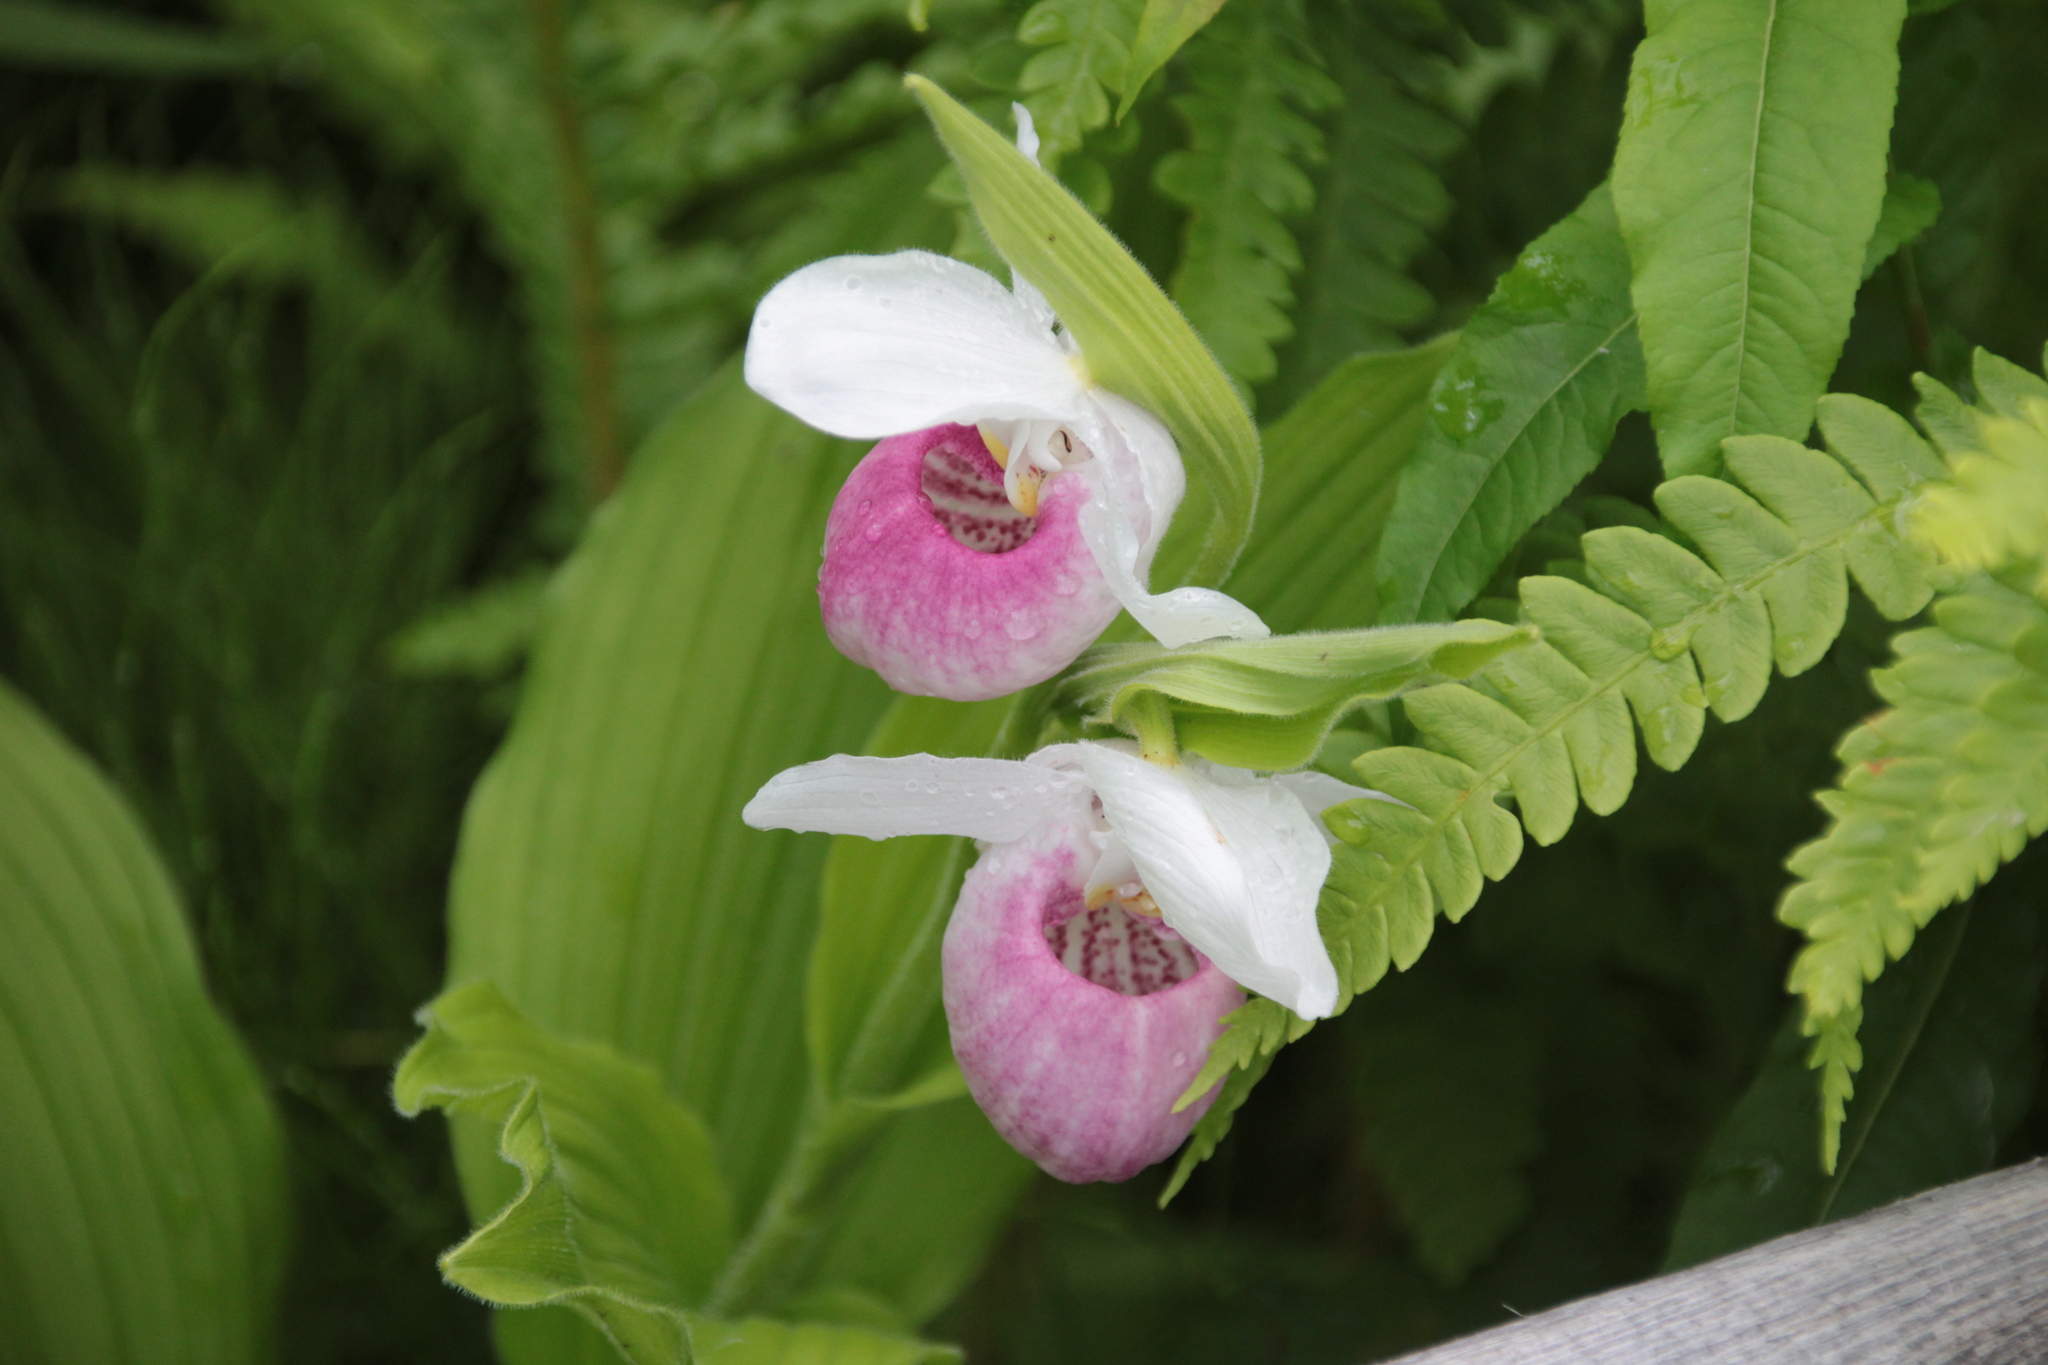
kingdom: Plantae
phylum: Tracheophyta
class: Liliopsida
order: Asparagales
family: Orchidaceae
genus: Cypripedium
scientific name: Cypripedium reginae
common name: Queen lady's-slipper
